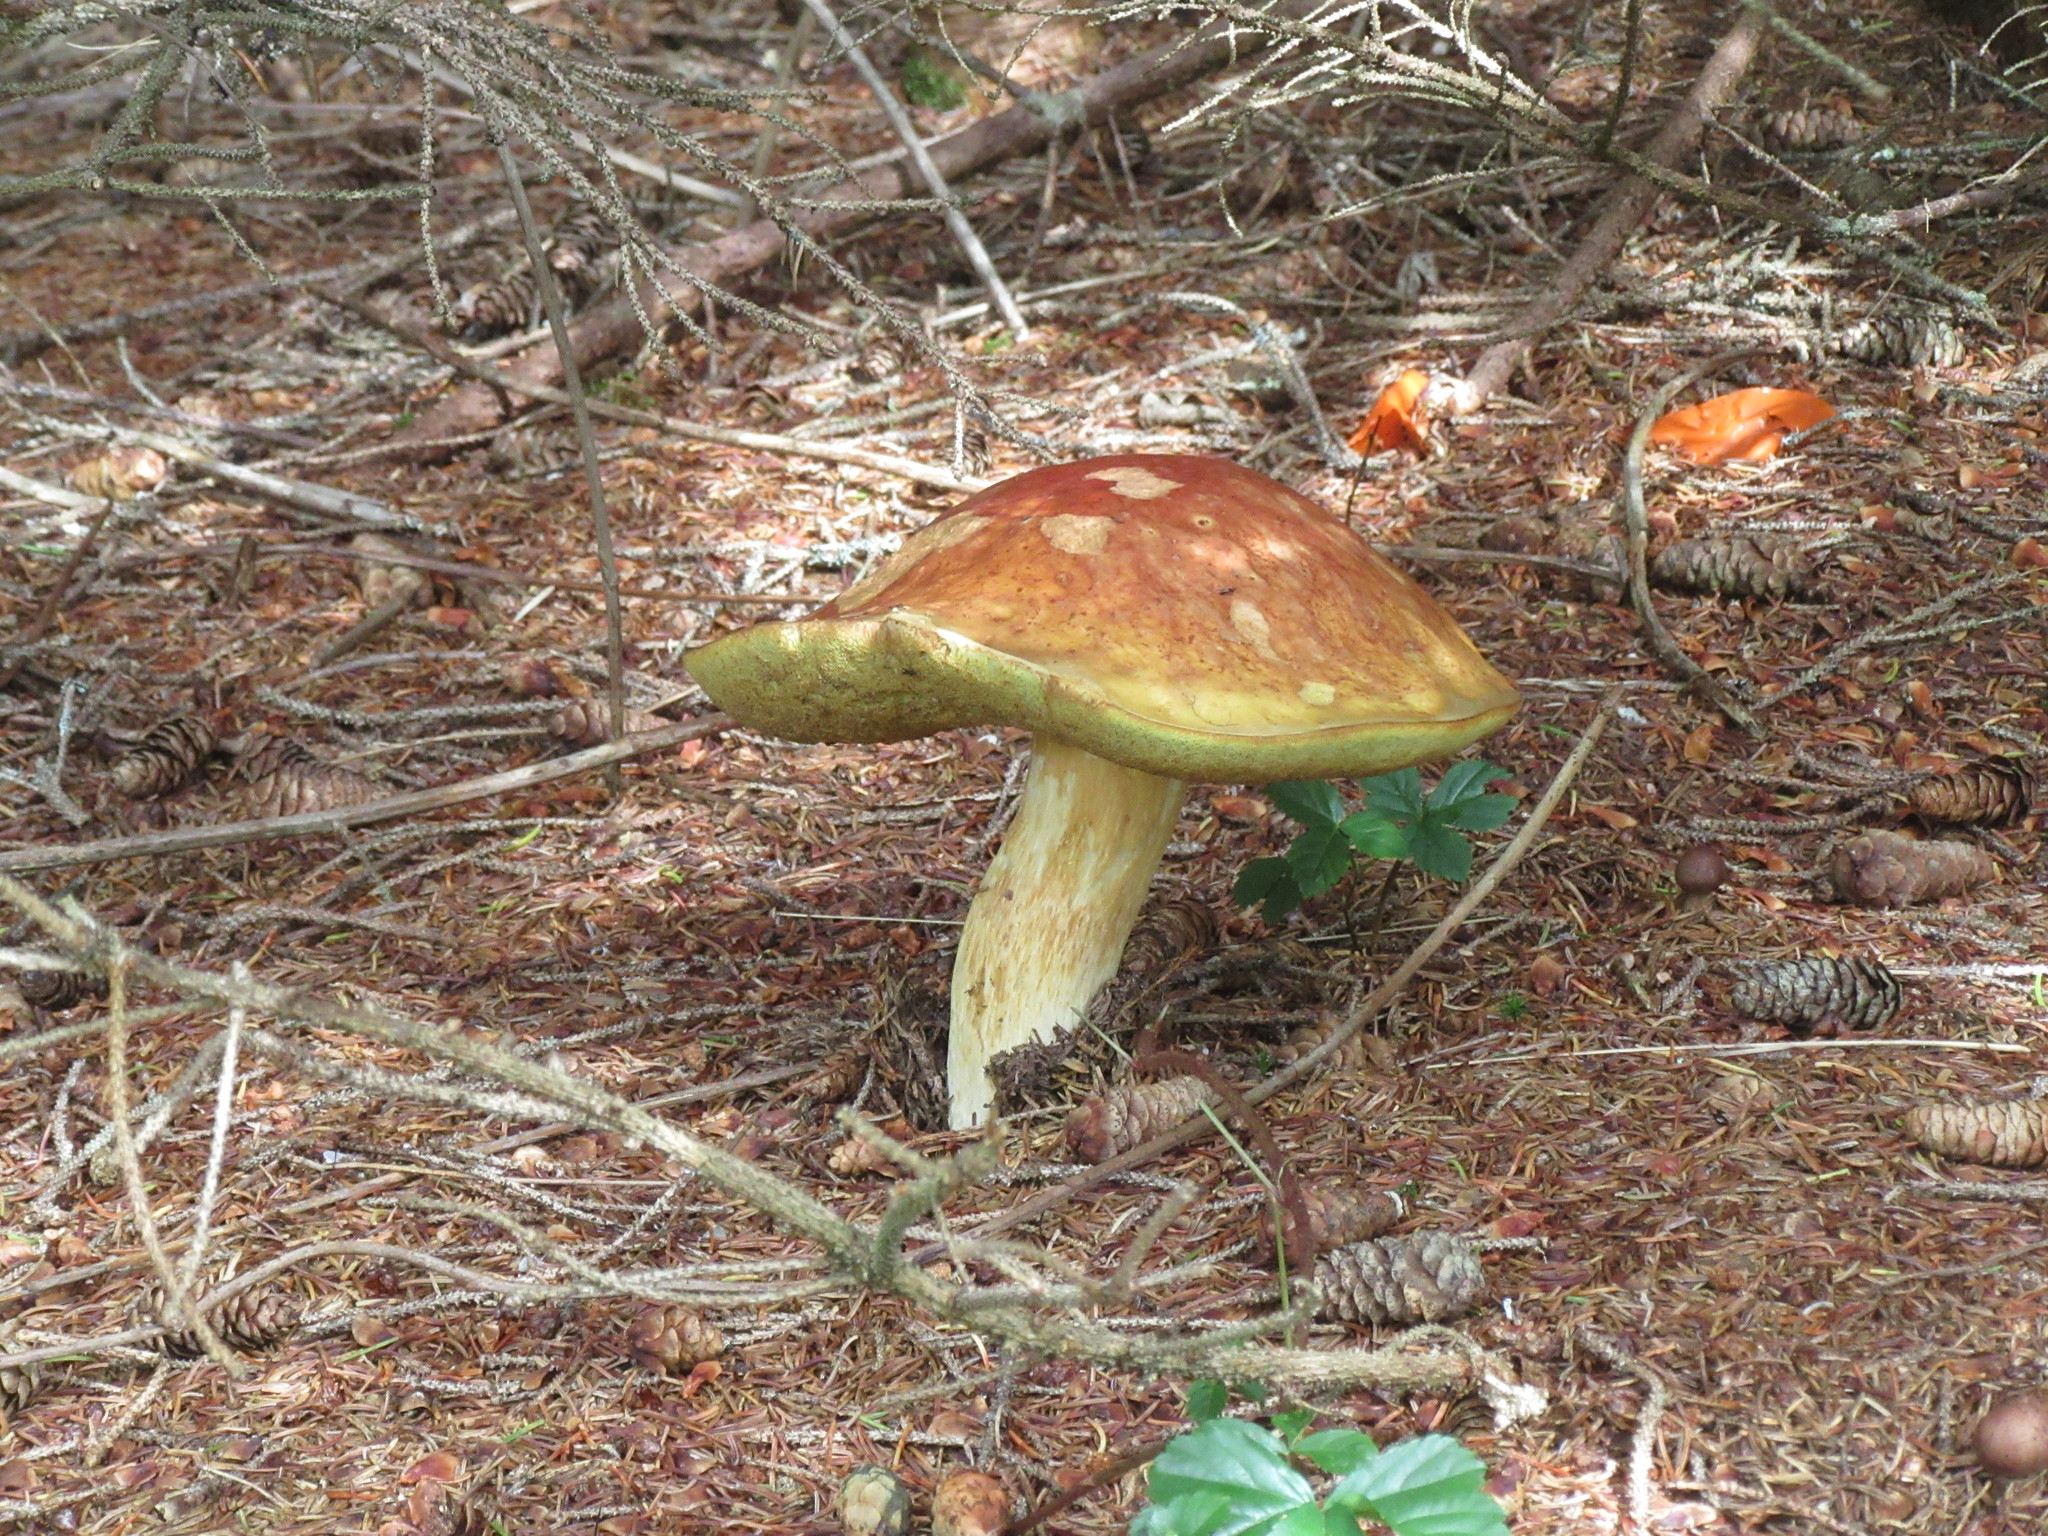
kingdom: Fungi
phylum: Basidiomycota
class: Agaricomycetes
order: Boletales
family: Boletaceae
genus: Boletus
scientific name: Boletus edulis
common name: Cep
